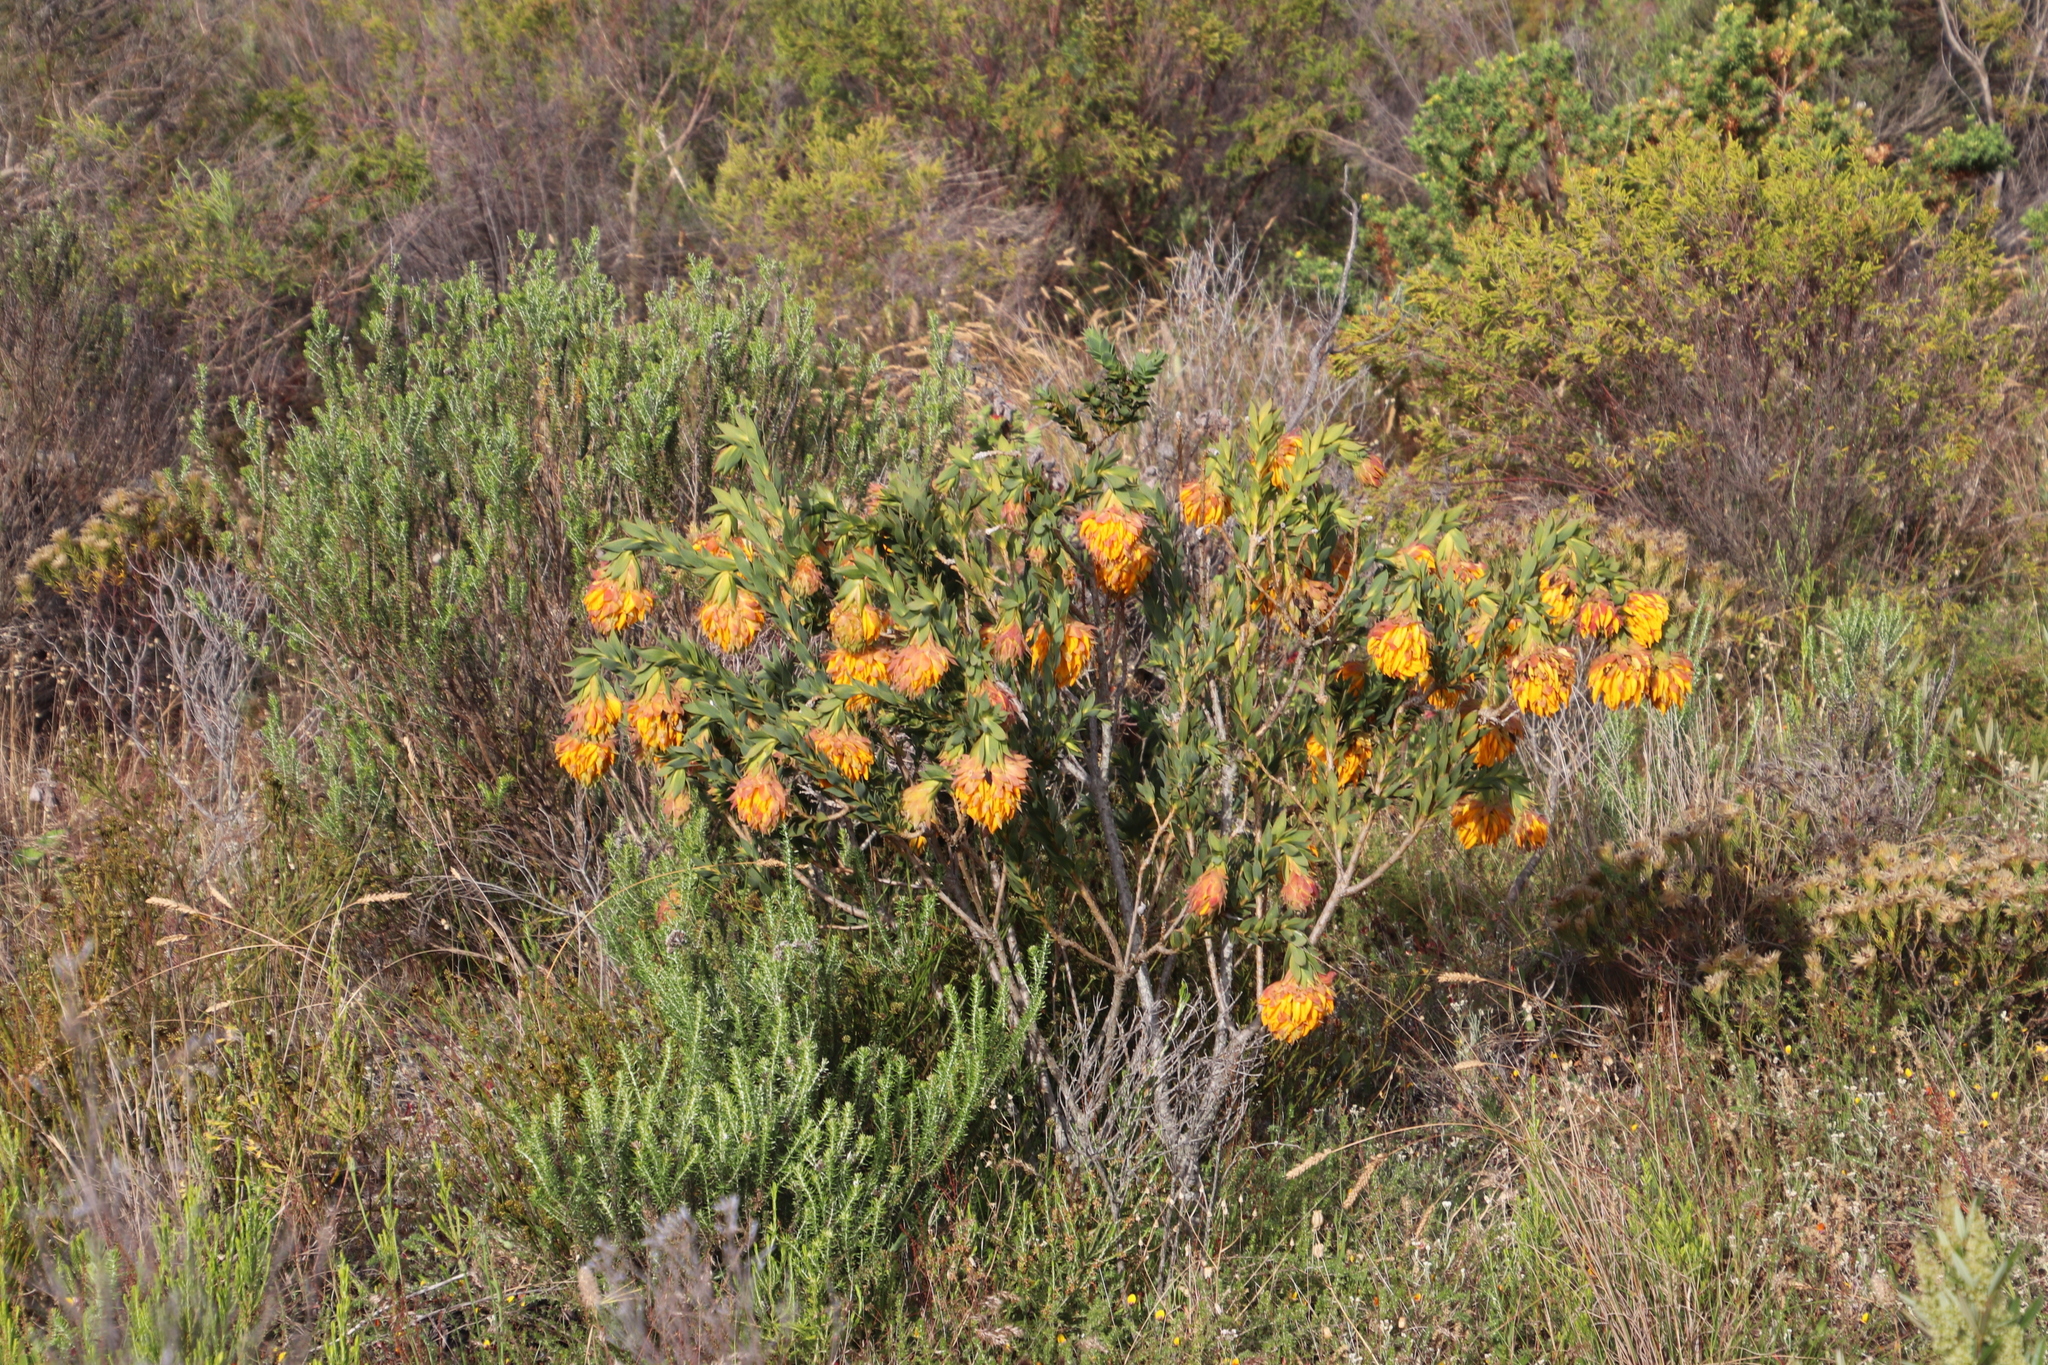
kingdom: Plantae
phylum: Tracheophyta
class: Magnoliopsida
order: Fabales
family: Fabaceae
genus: Liparia
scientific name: Liparia splendens
